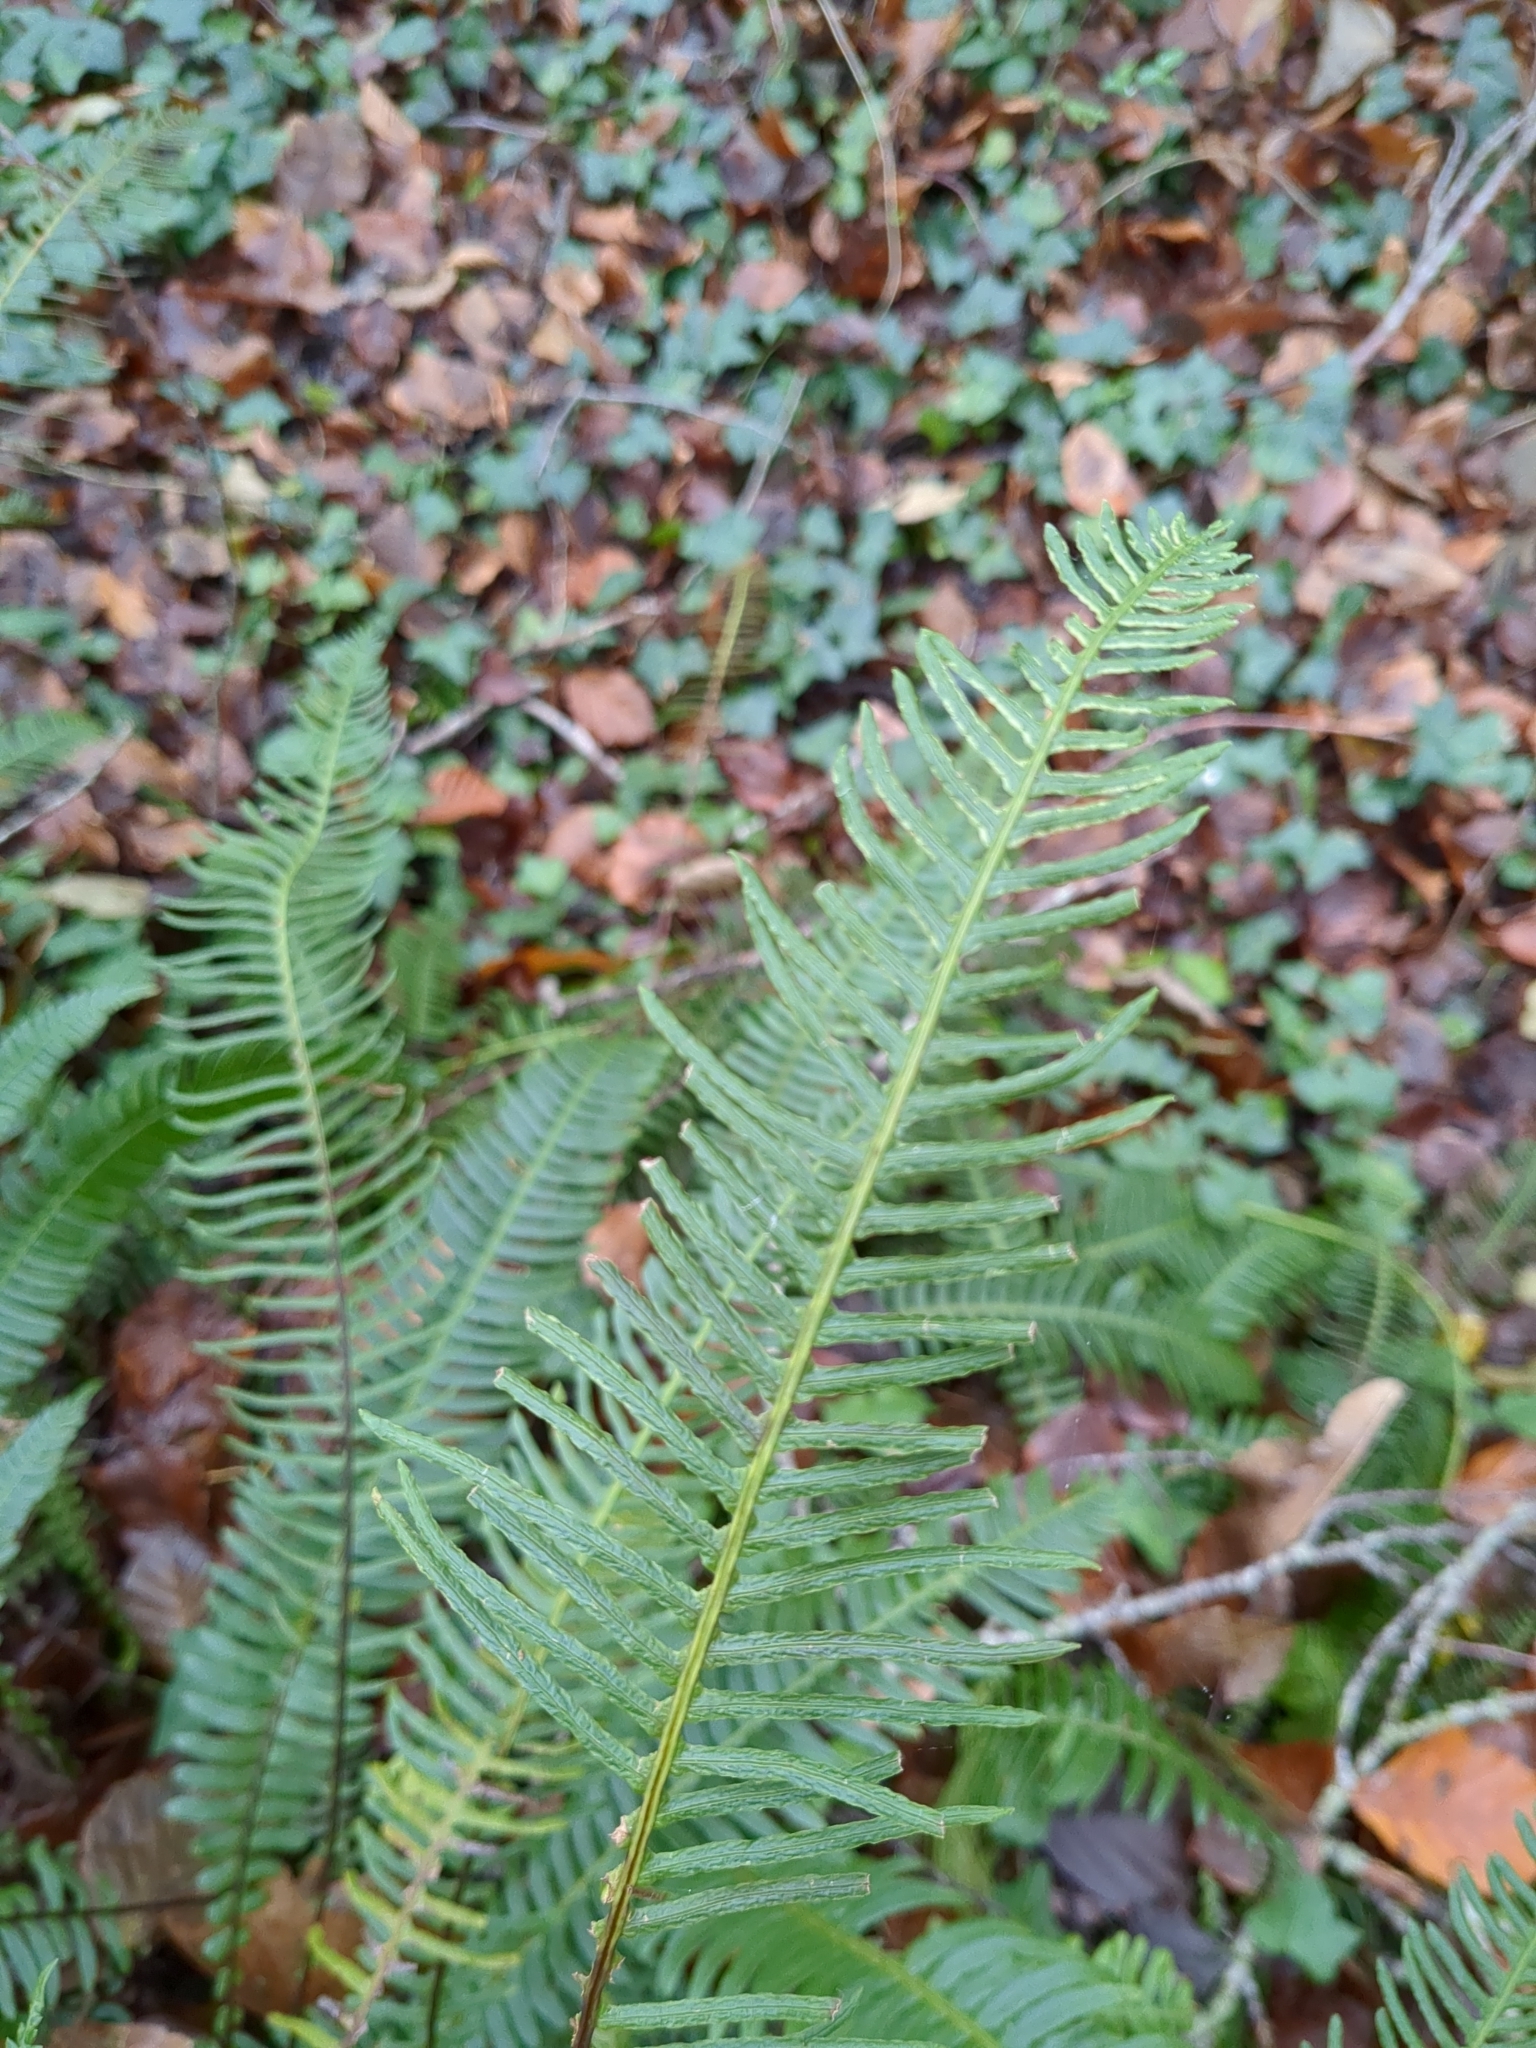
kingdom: Plantae
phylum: Tracheophyta
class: Polypodiopsida
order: Polypodiales
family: Blechnaceae
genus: Struthiopteris
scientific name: Struthiopteris spicant
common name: Deer fern
